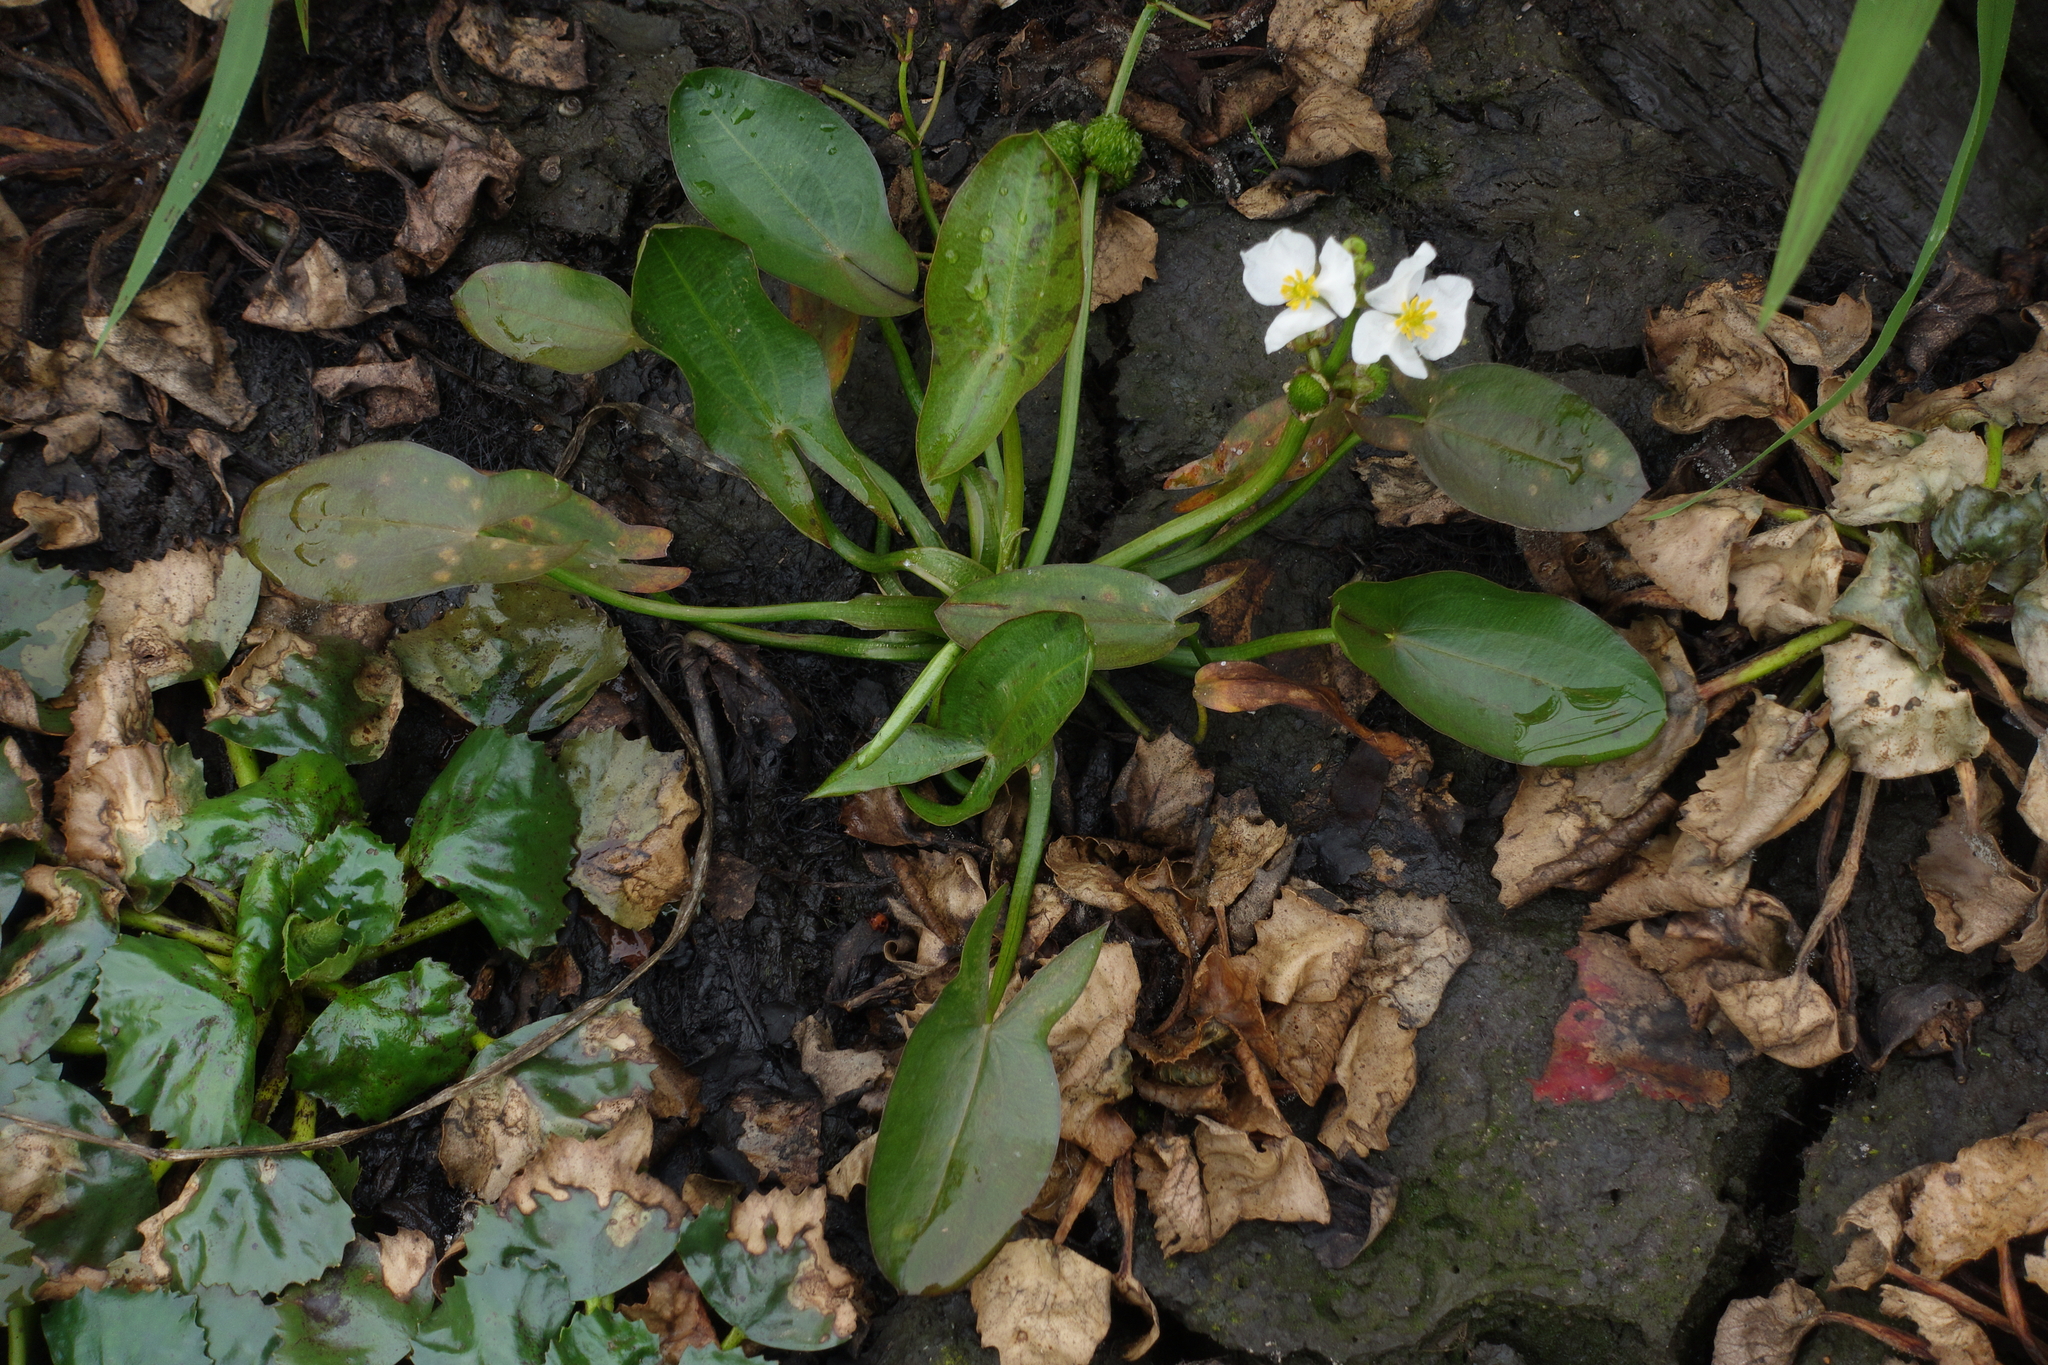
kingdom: Plantae
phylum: Tracheophyta
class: Liliopsida
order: Alismatales
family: Alismataceae
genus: Sagittaria
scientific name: Sagittaria natans
